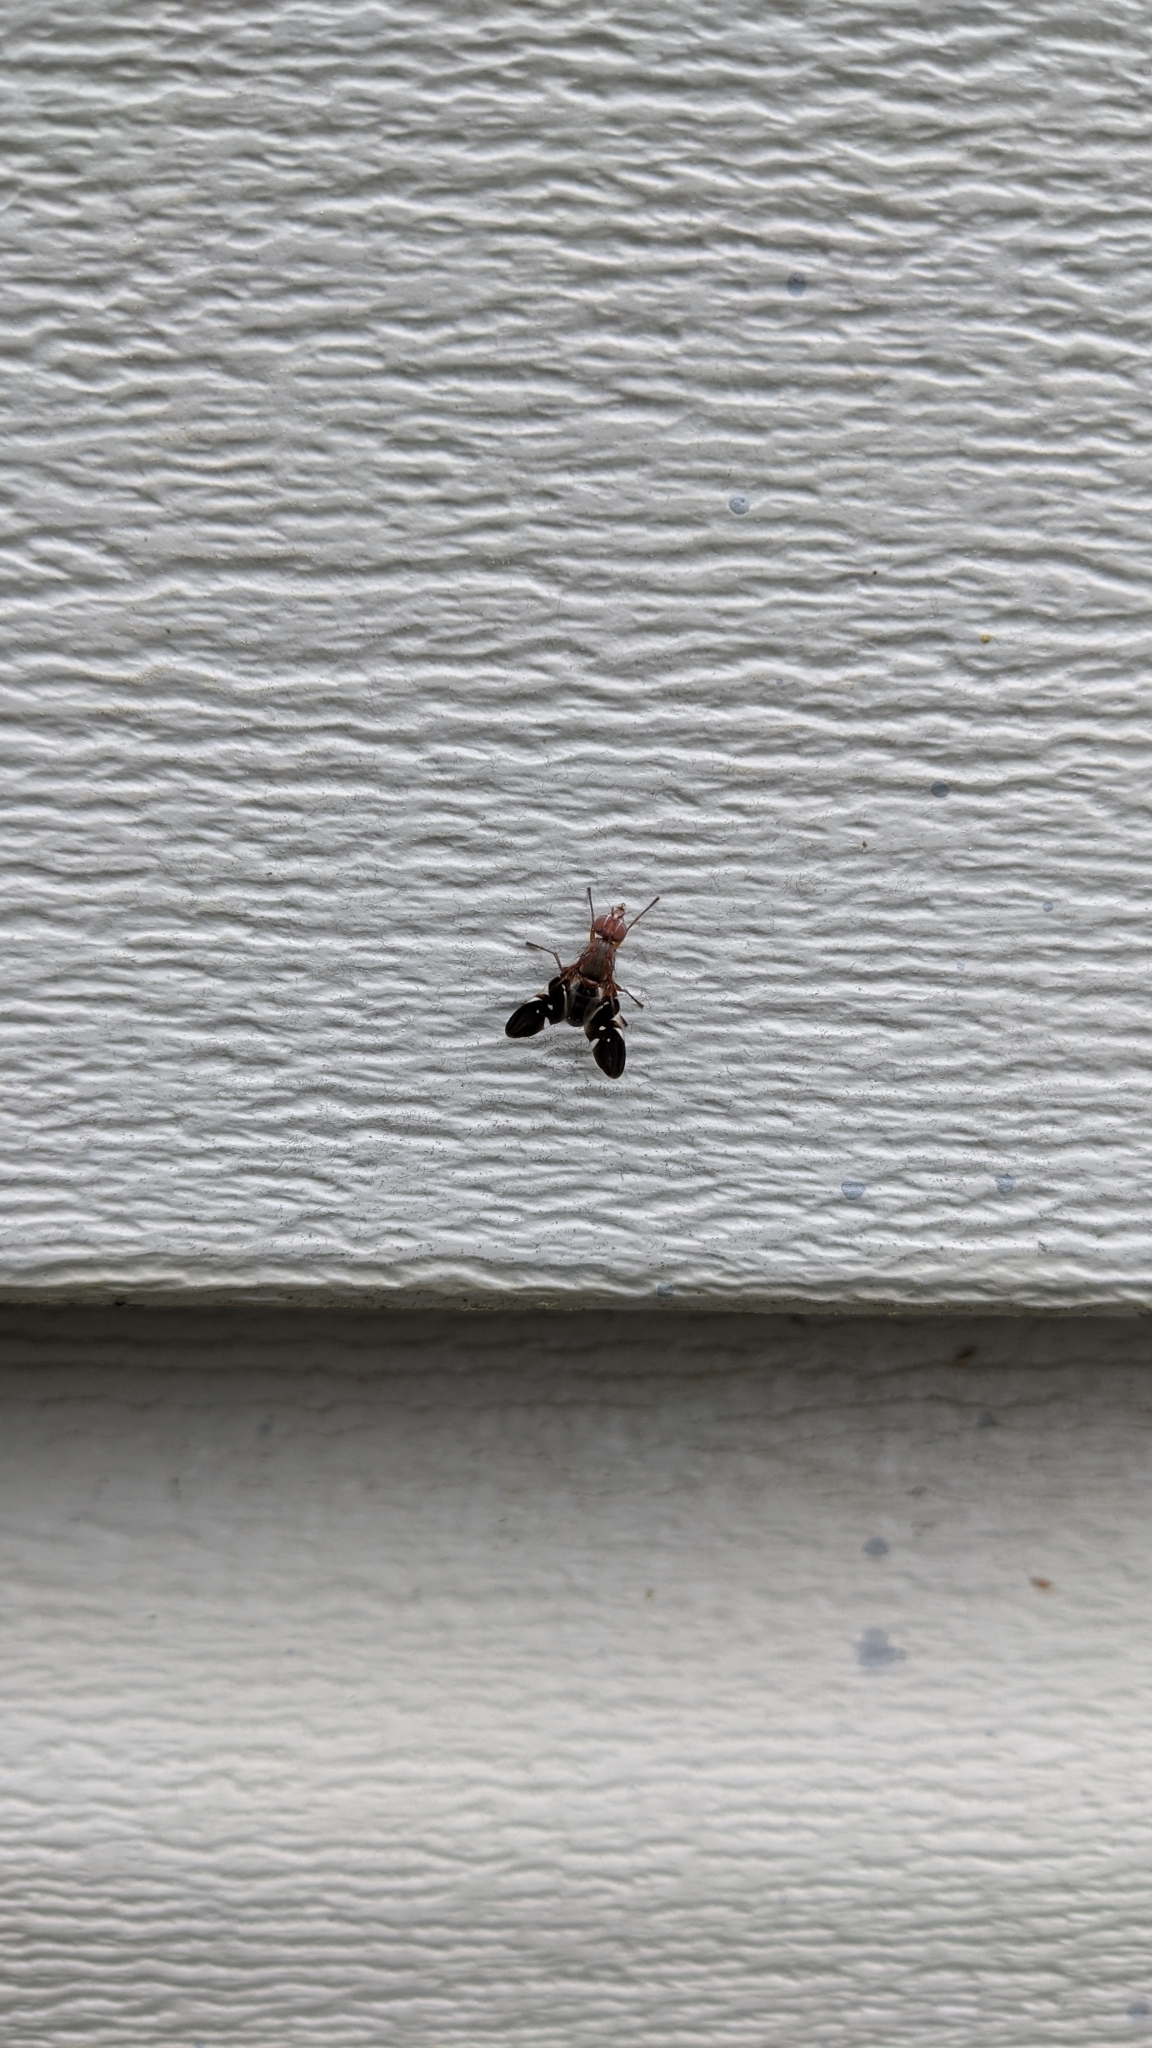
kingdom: Animalia
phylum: Arthropoda
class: Insecta
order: Diptera
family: Ulidiidae
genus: Delphinia
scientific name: Delphinia picta
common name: Common picture-winged fly
